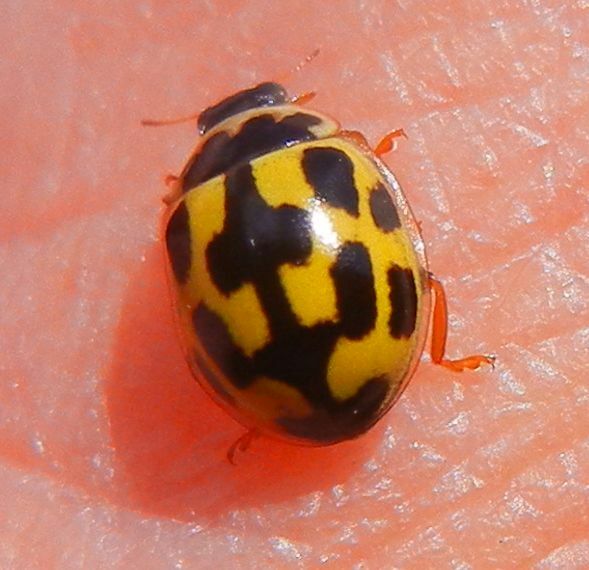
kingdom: Animalia
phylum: Arthropoda
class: Insecta
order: Coleoptera
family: Coccinellidae
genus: Propylaea
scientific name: Propylaea quatuordecimpunctata
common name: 14-spotted ladybird beetle
